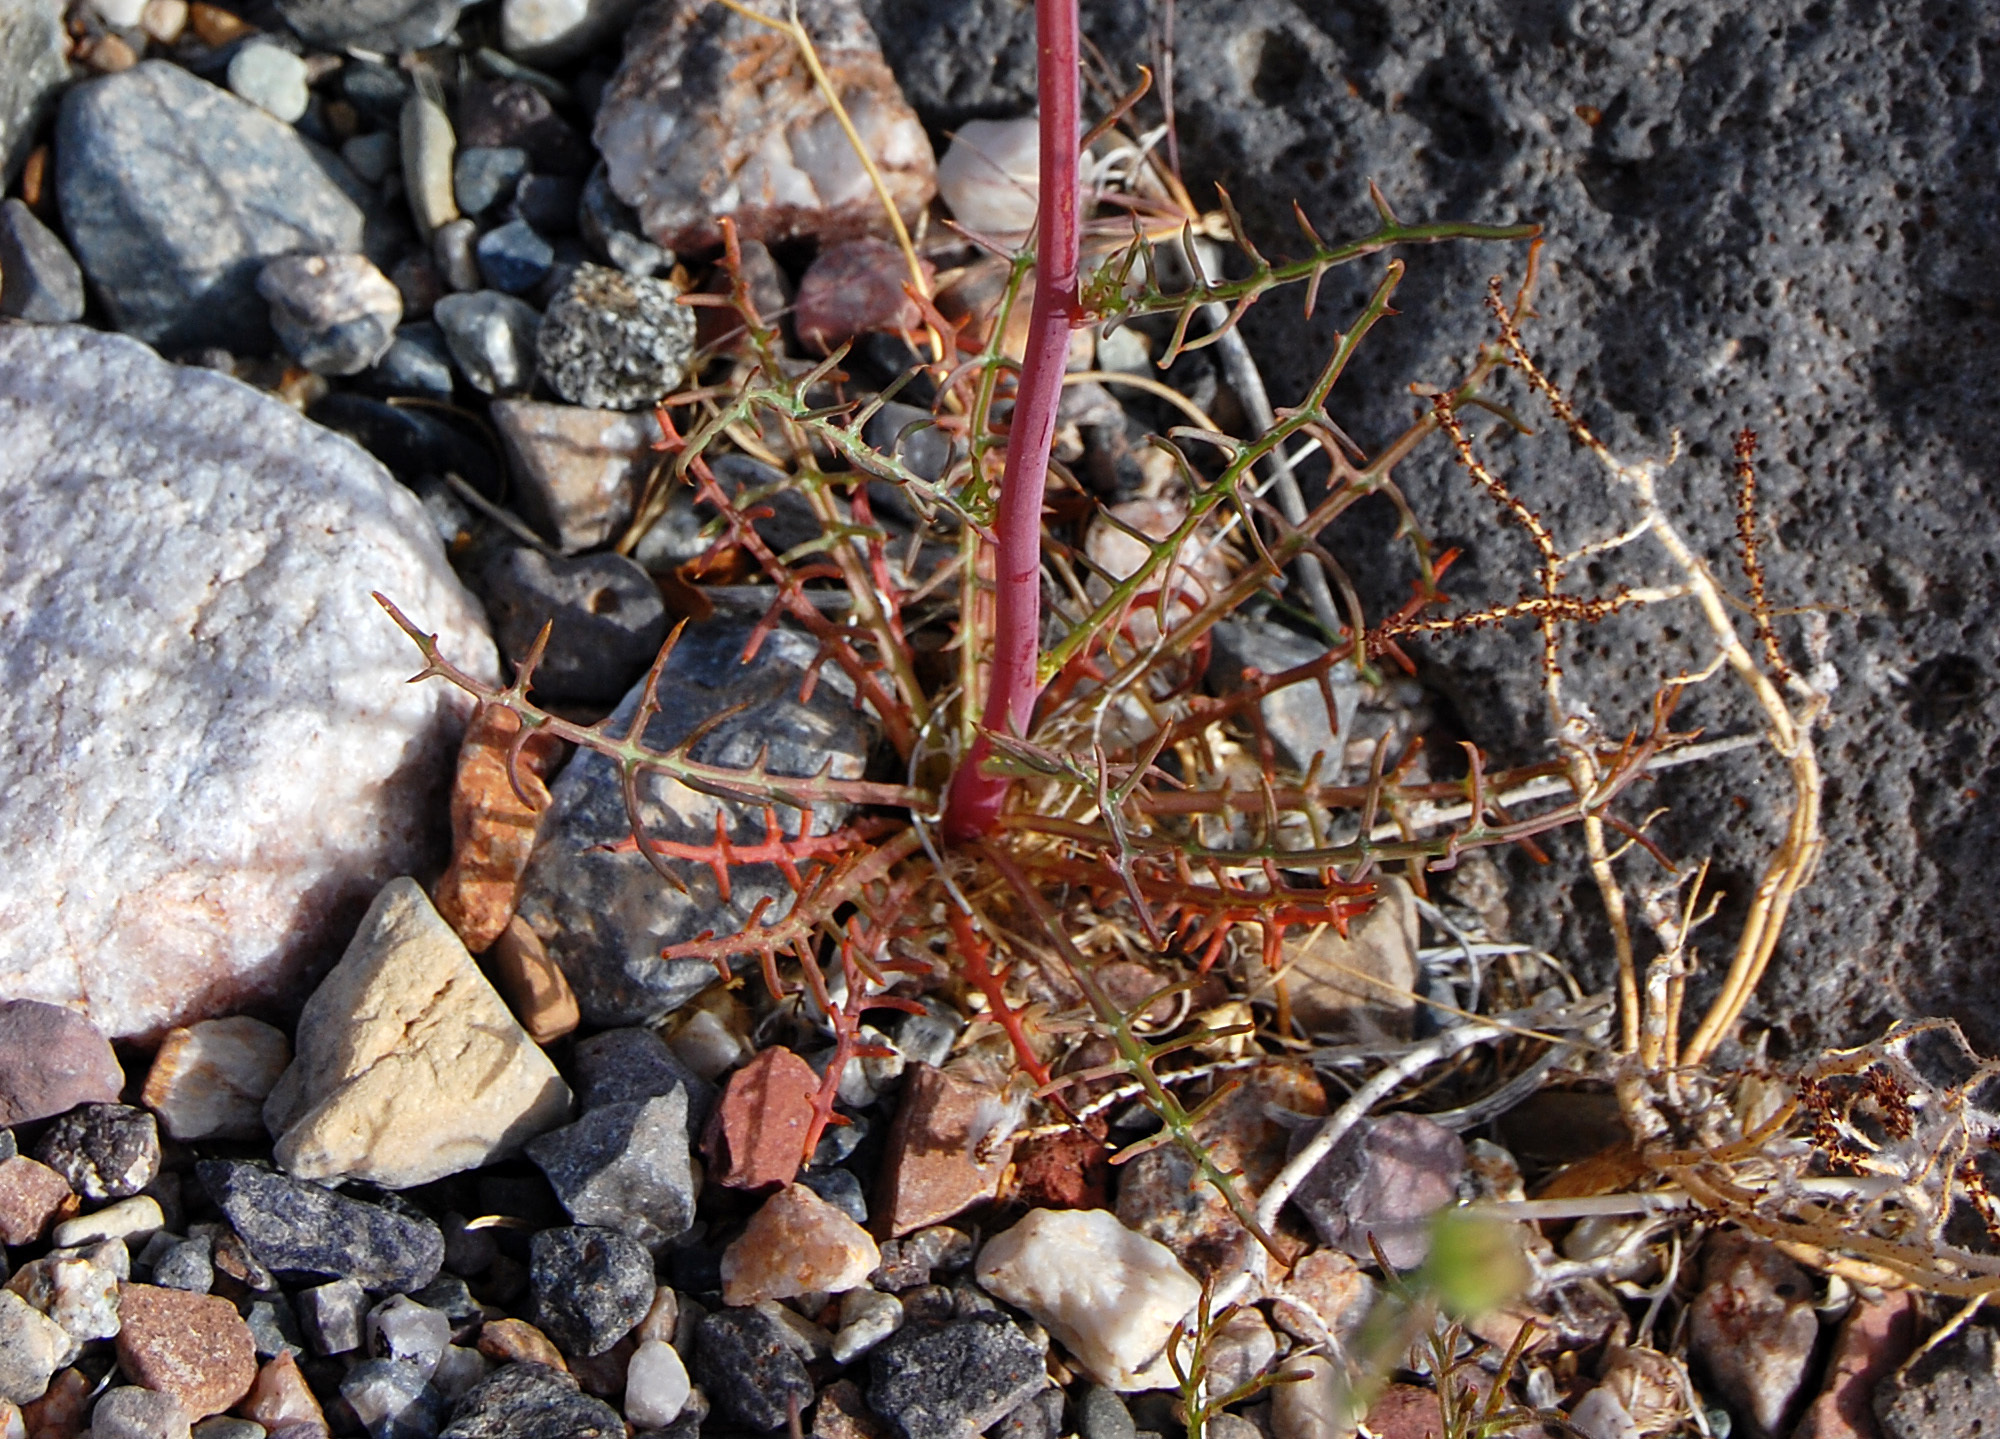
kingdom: Plantae
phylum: Tracheophyta
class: Magnoliopsida
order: Asterales
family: Asteraceae
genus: Calycoseris
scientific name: Calycoseris wrightii
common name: White tackstem
